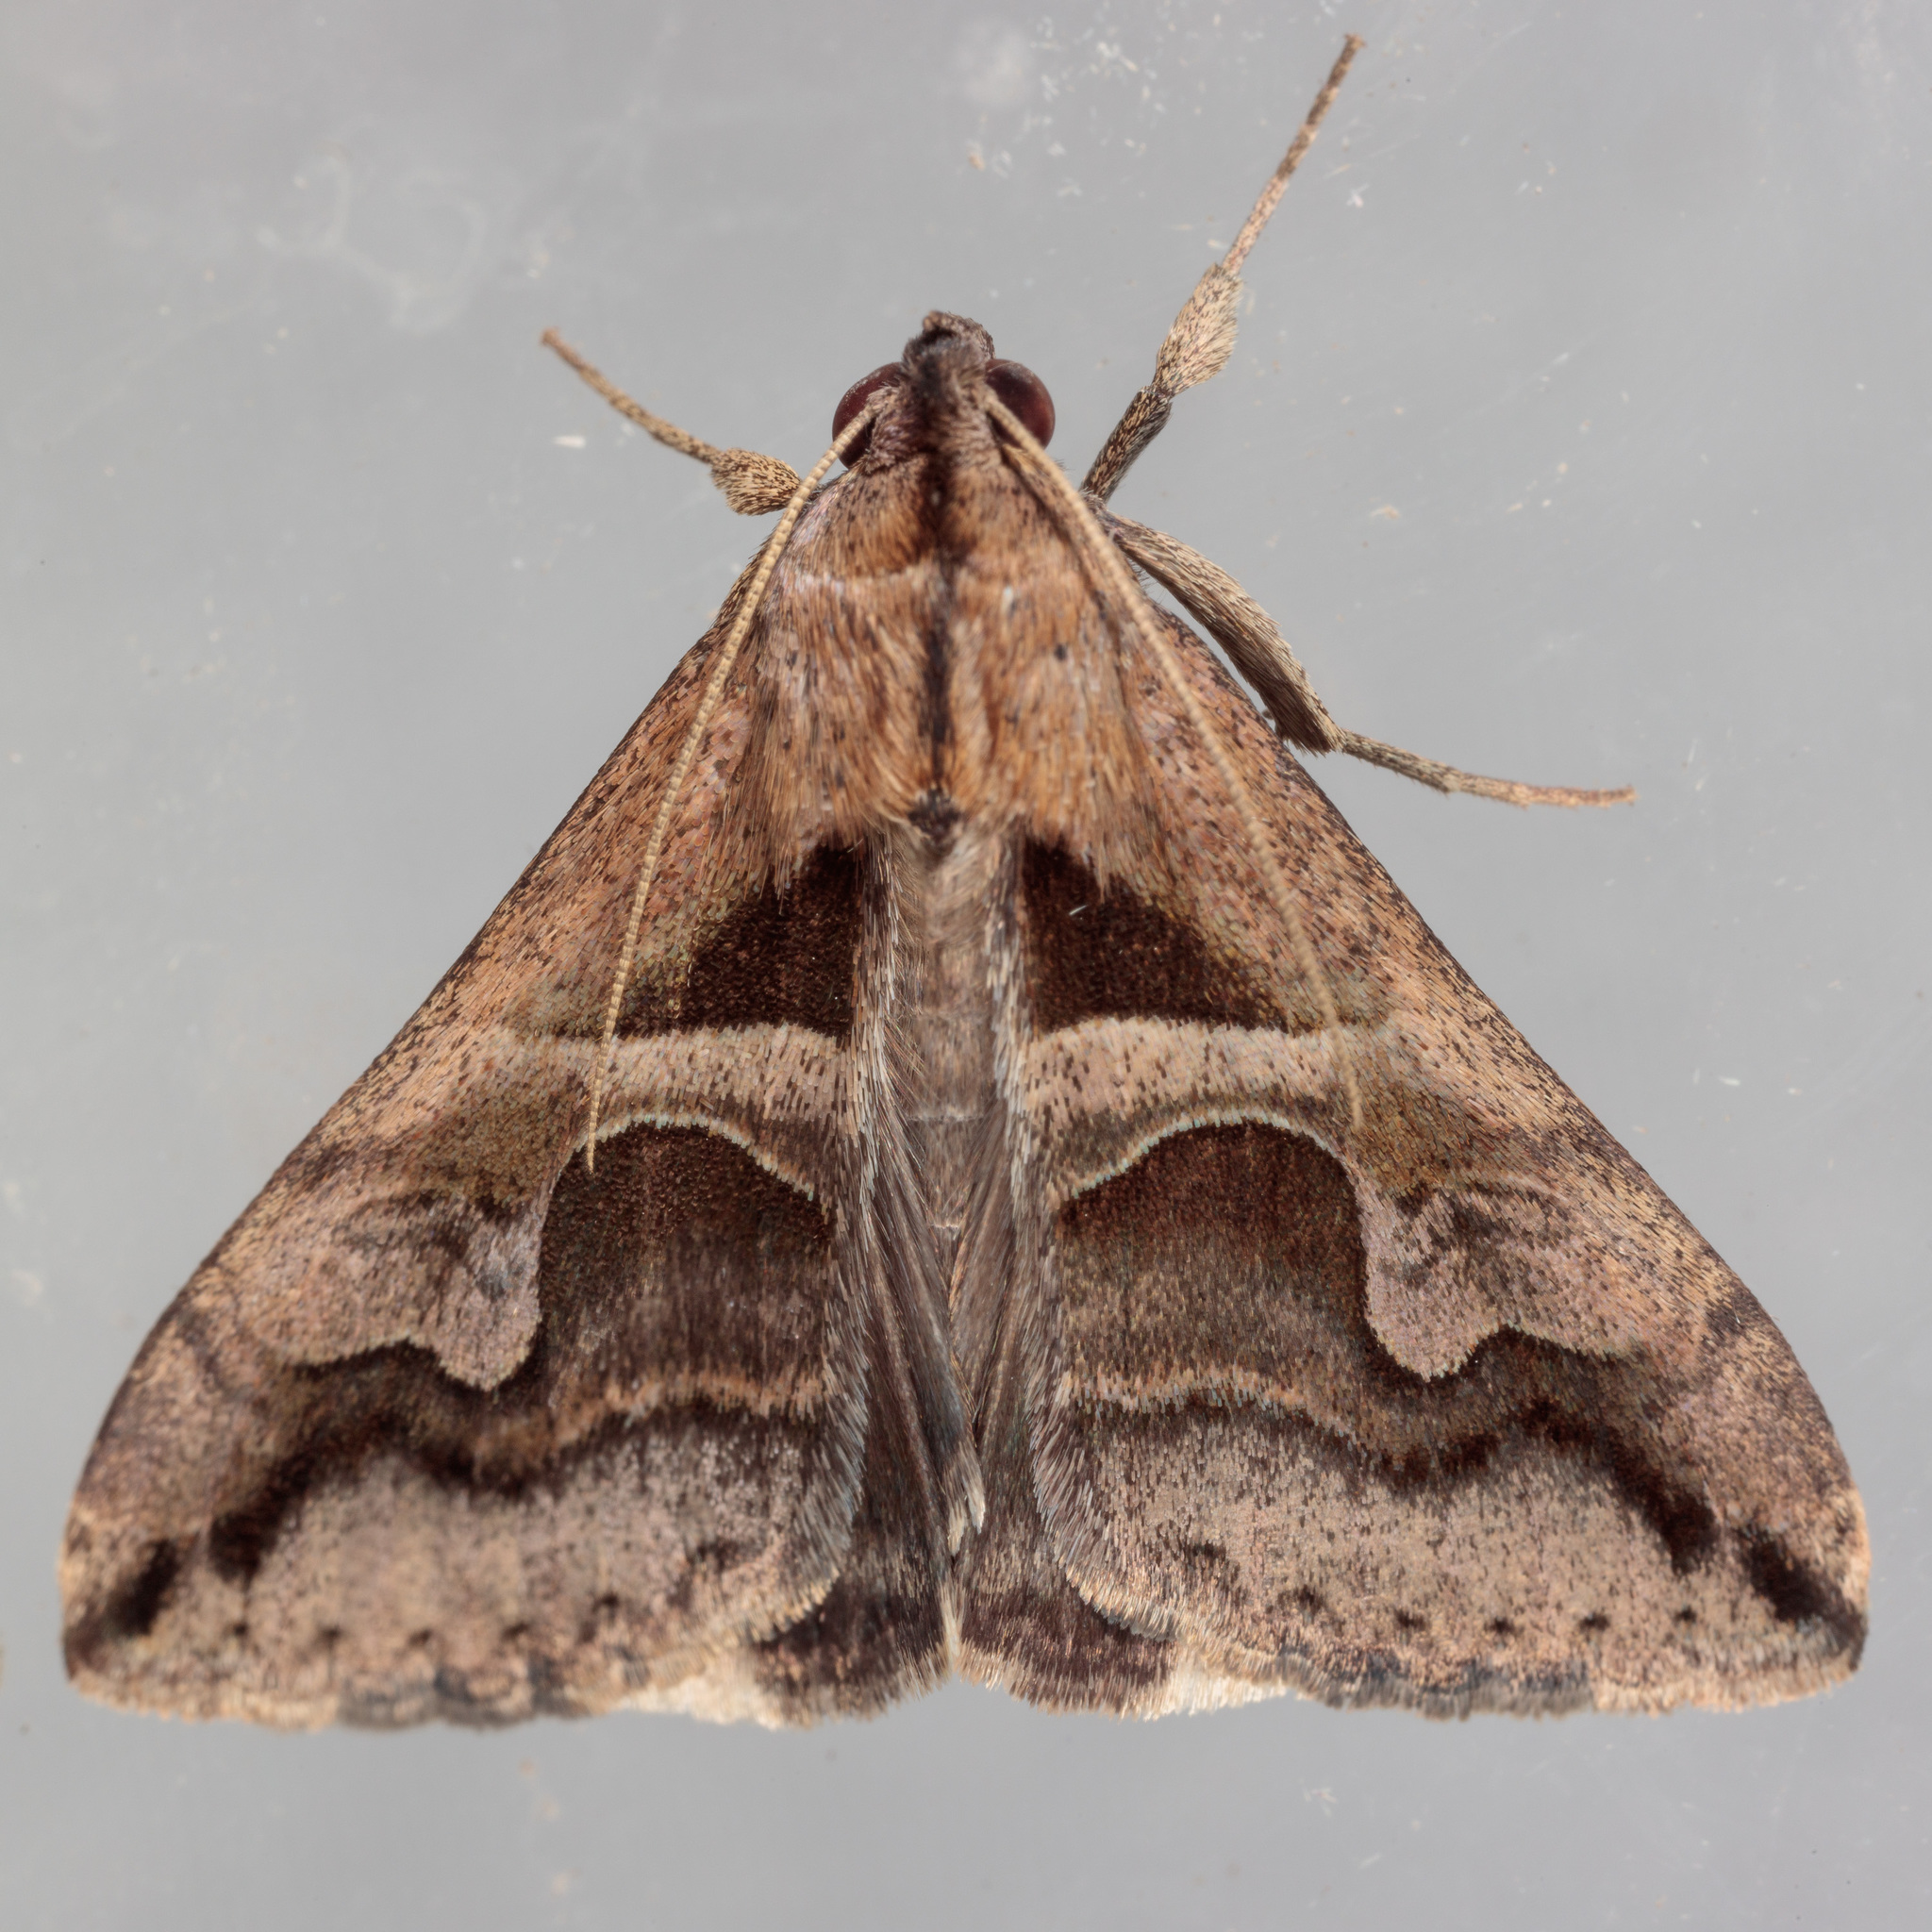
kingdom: Animalia
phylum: Arthropoda
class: Insecta
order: Lepidoptera
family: Erebidae
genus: Melipotis
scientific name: Melipotis cellaris
